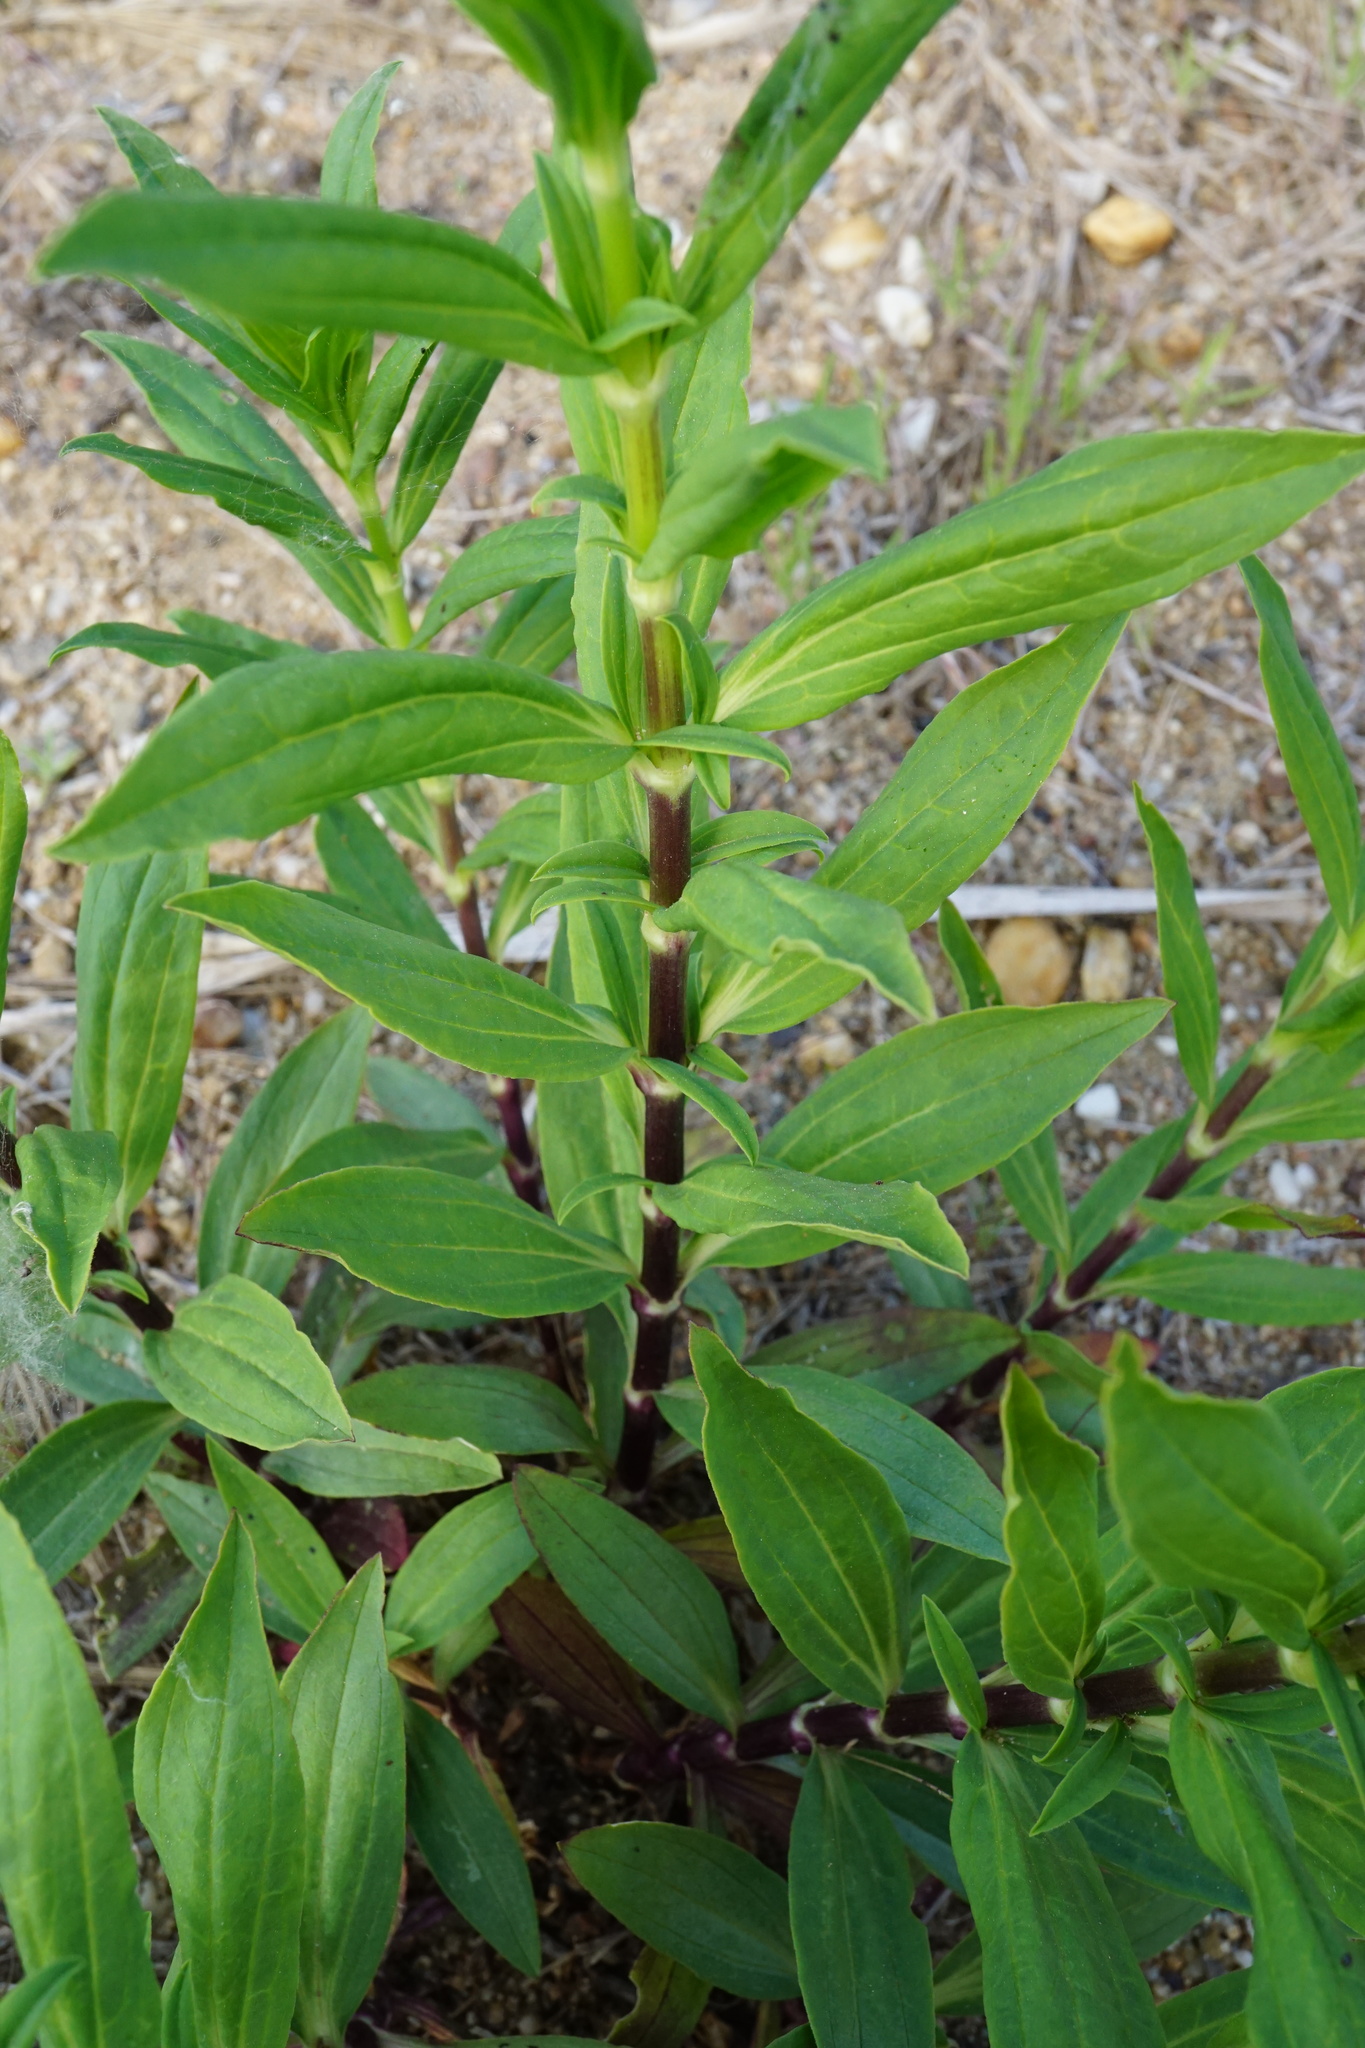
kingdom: Plantae
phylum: Tracheophyta
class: Magnoliopsida
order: Caryophyllales
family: Caryophyllaceae
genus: Saponaria
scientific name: Saponaria officinalis
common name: Soapwort
